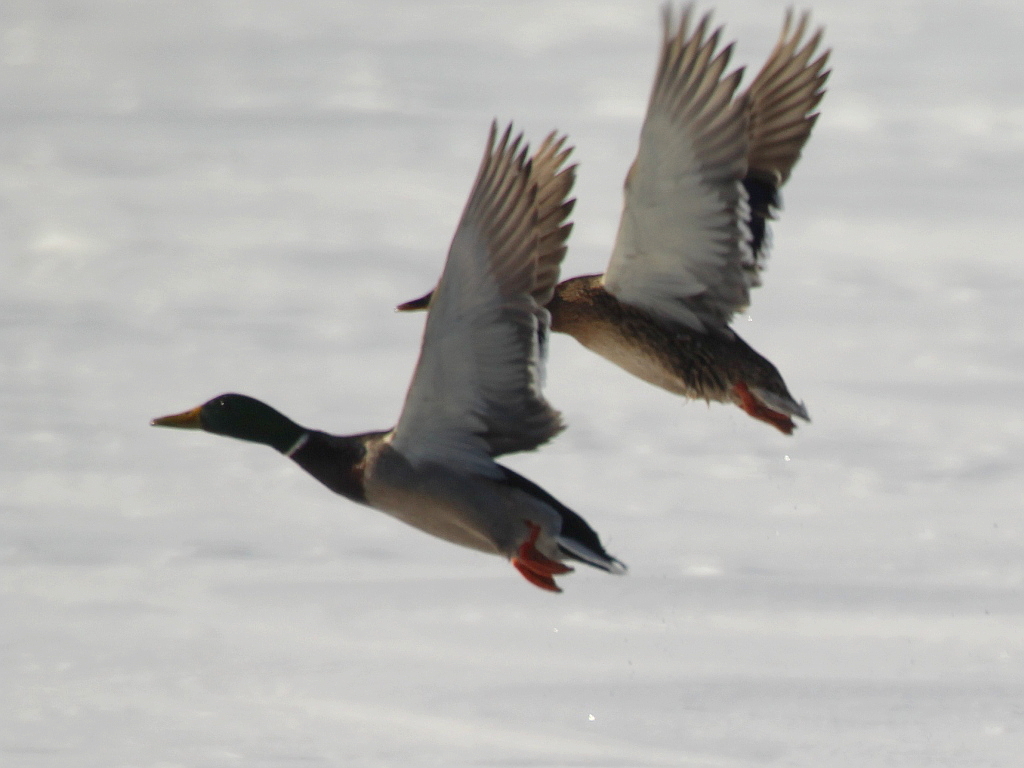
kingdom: Animalia
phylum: Chordata
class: Aves
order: Anseriformes
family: Anatidae
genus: Anas
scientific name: Anas platyrhynchos
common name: Mallard
